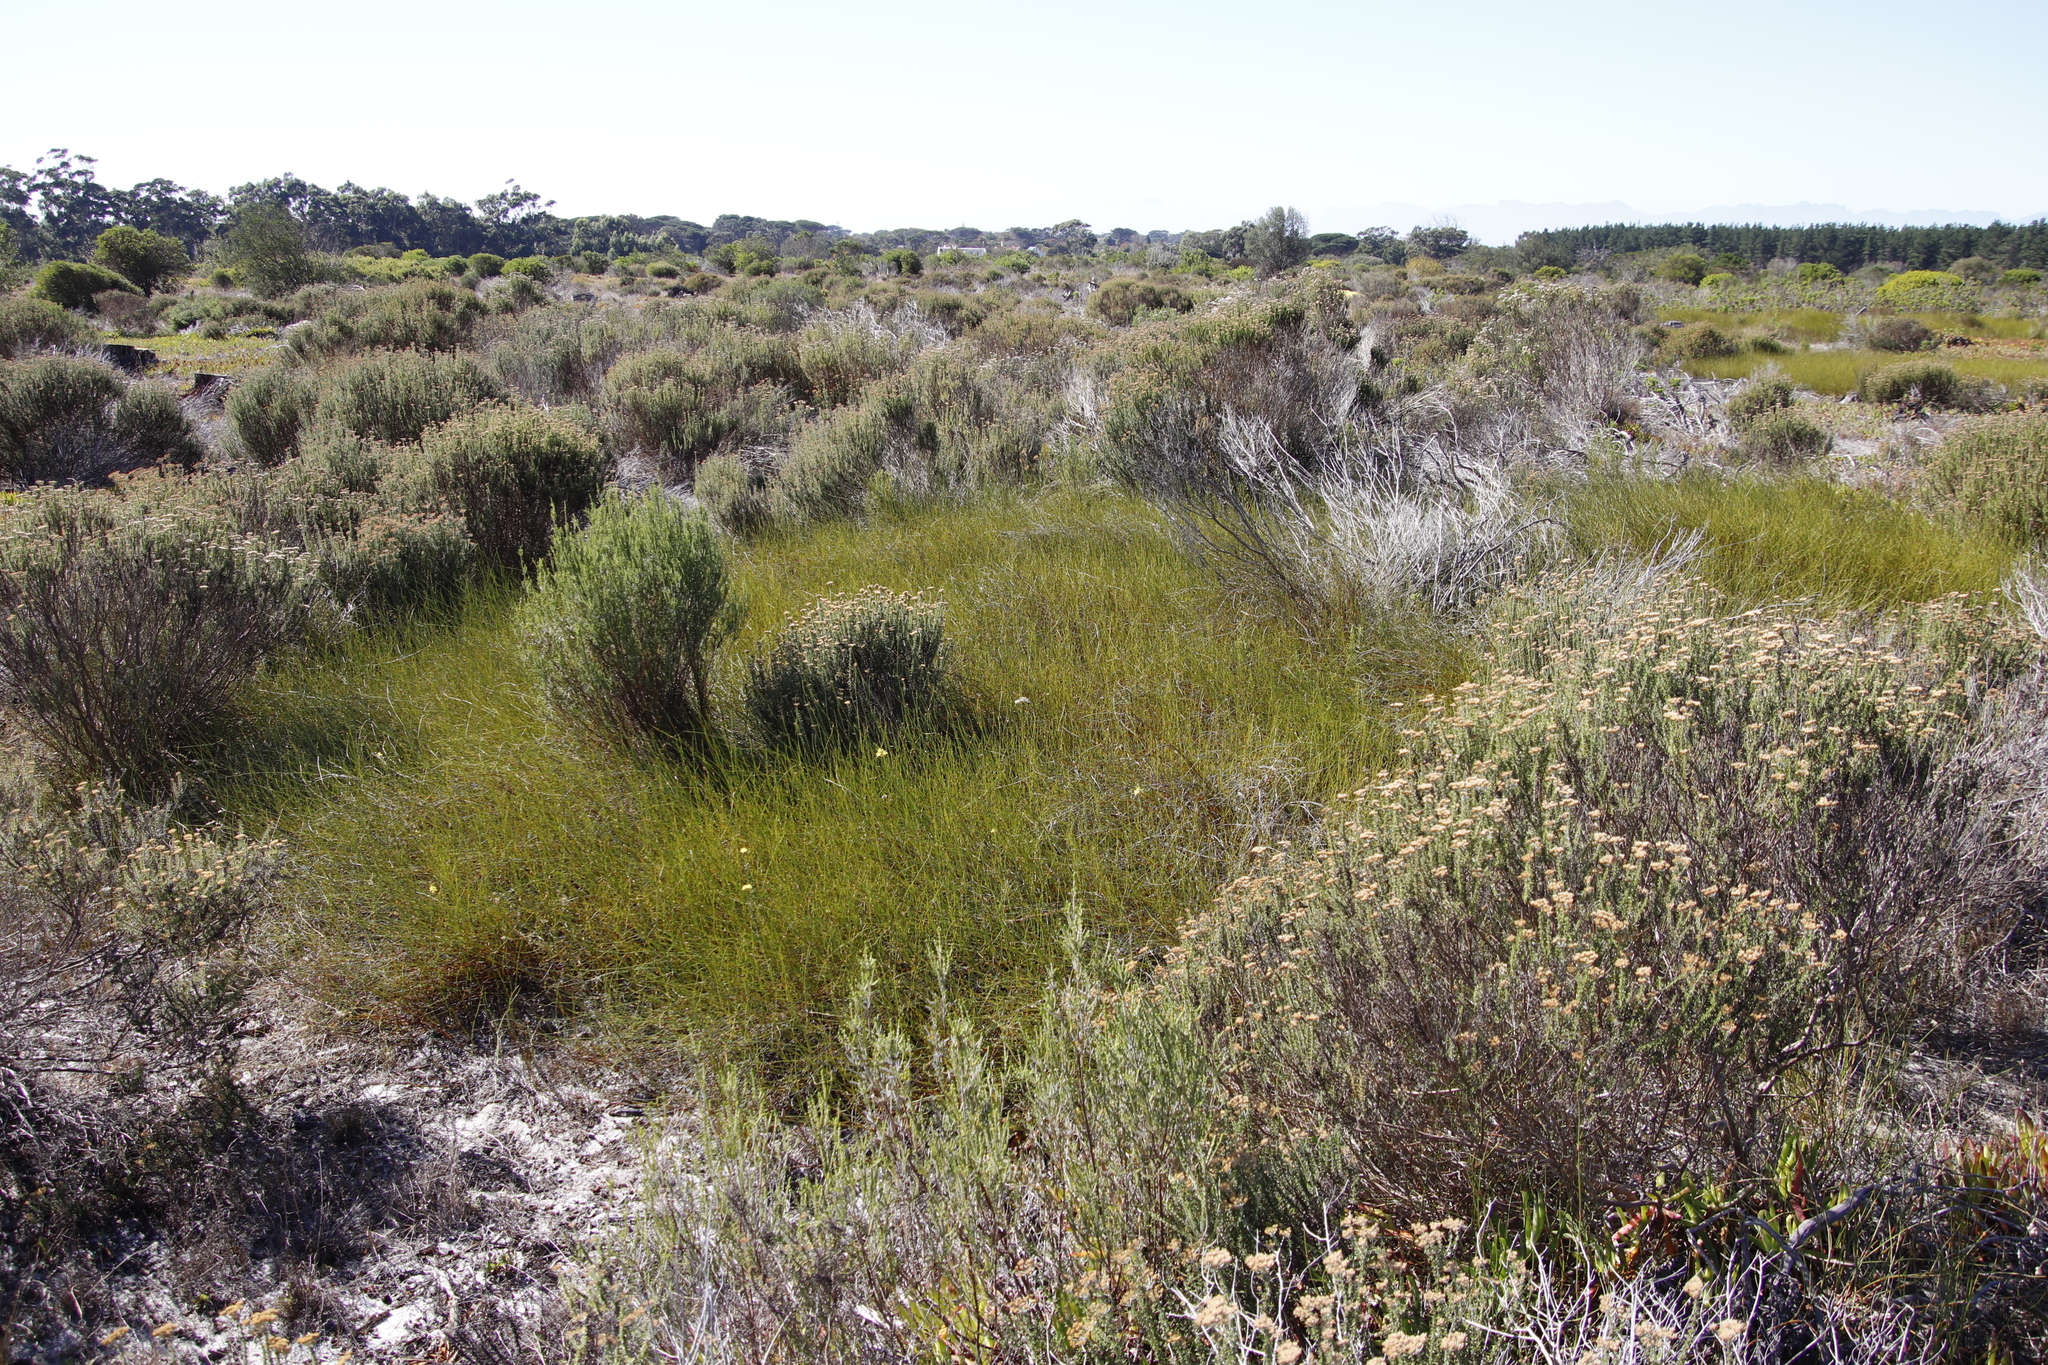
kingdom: Plantae
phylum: Tracheophyta
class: Liliopsida
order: Poales
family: Restionaceae
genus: Willdenowia
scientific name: Willdenowia sulcata
